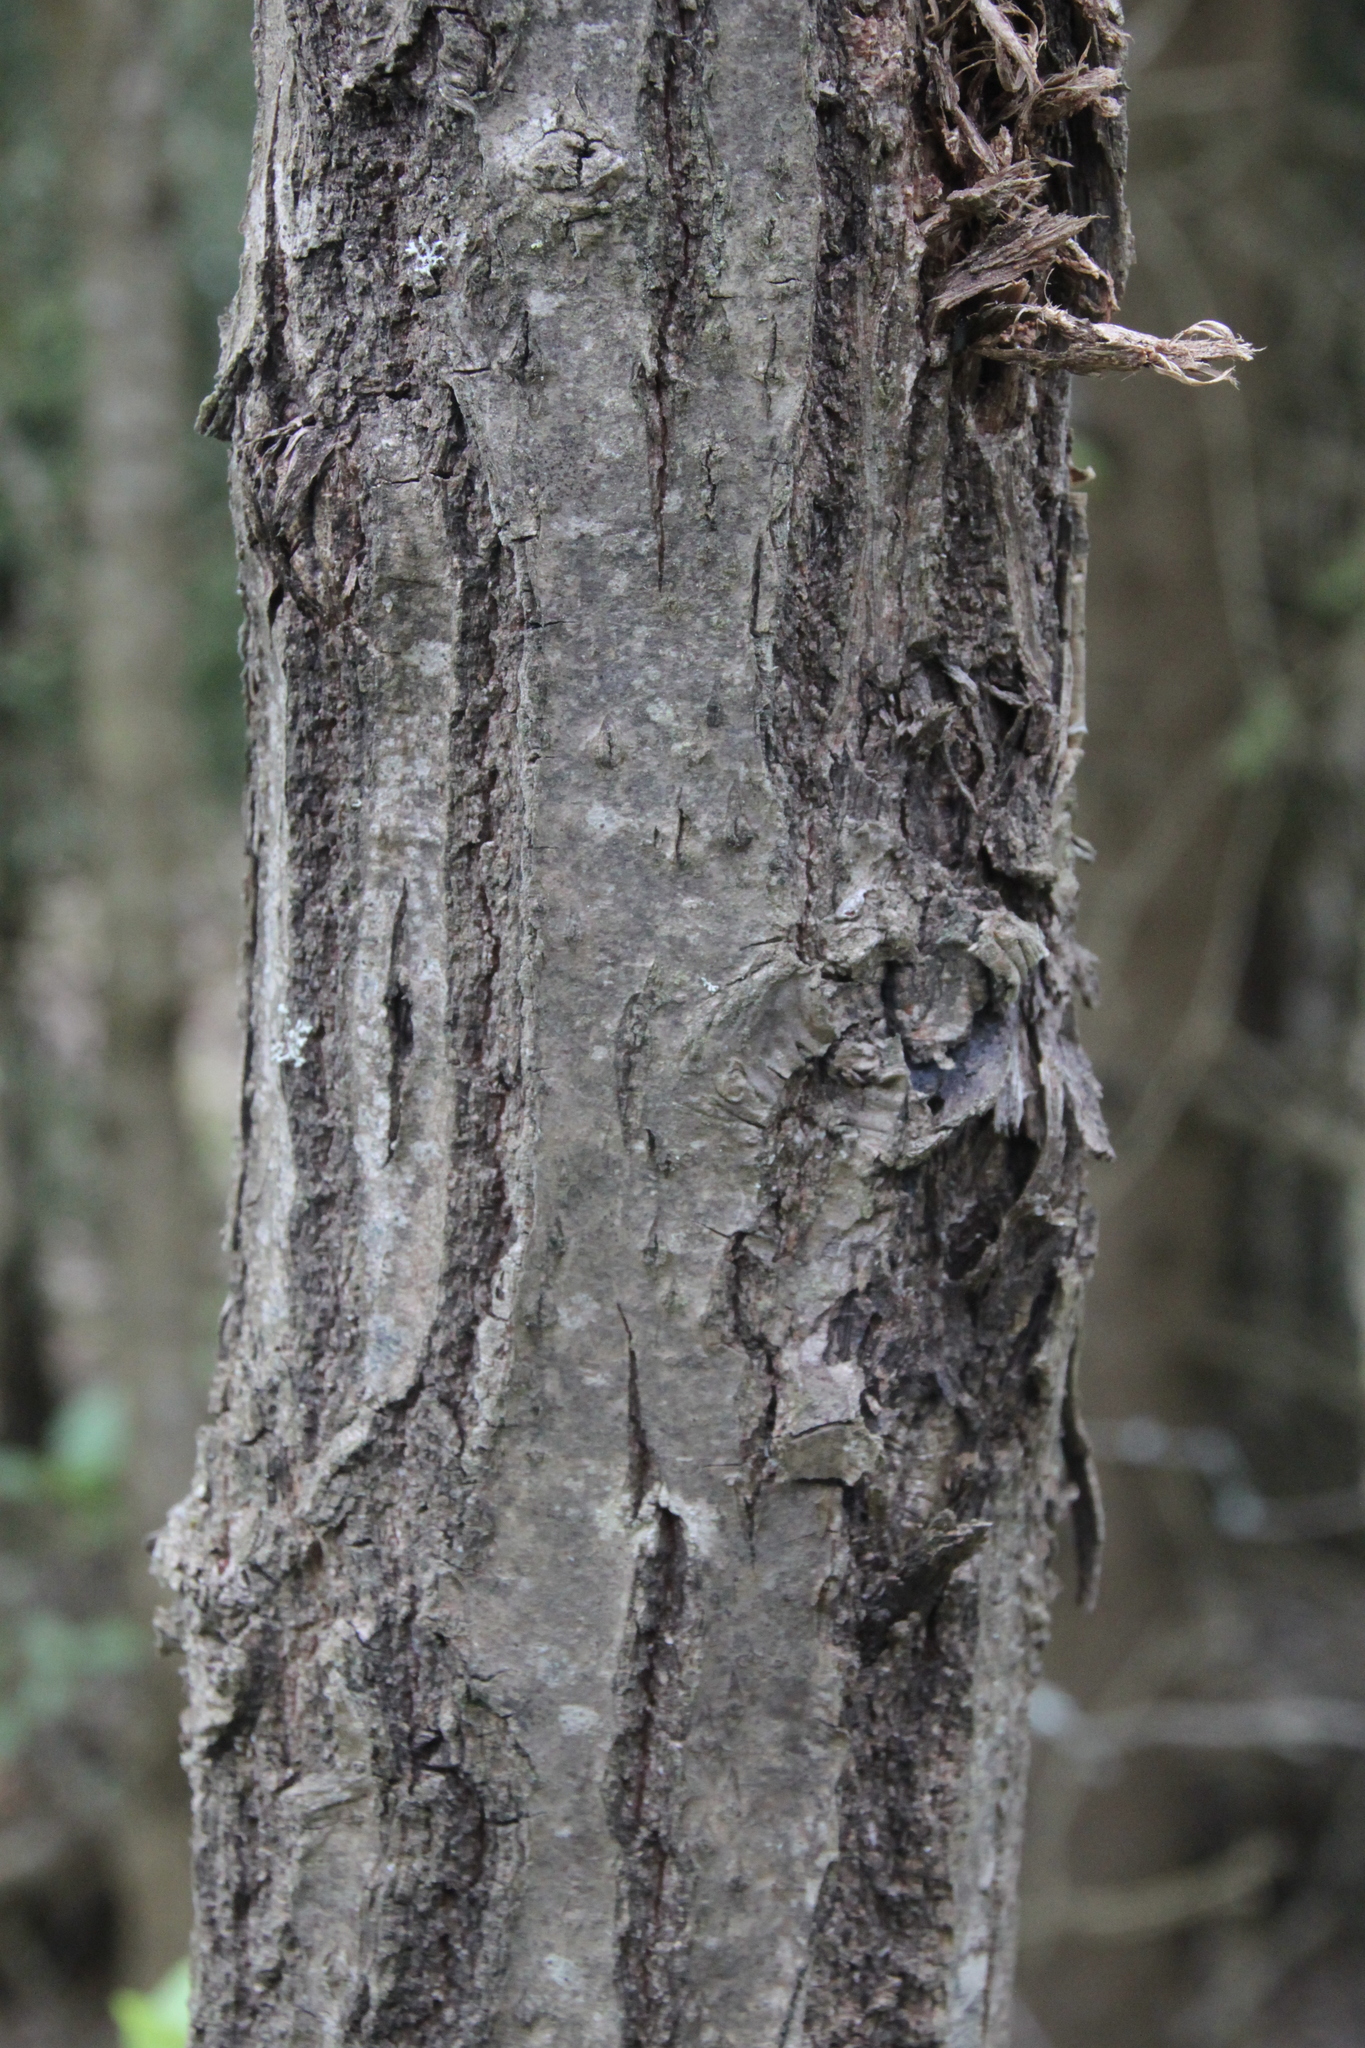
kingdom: Plantae
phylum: Tracheophyta
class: Magnoliopsida
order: Fagales
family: Fagaceae
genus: Quercus
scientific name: Quercus robur
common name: Pedunculate oak
